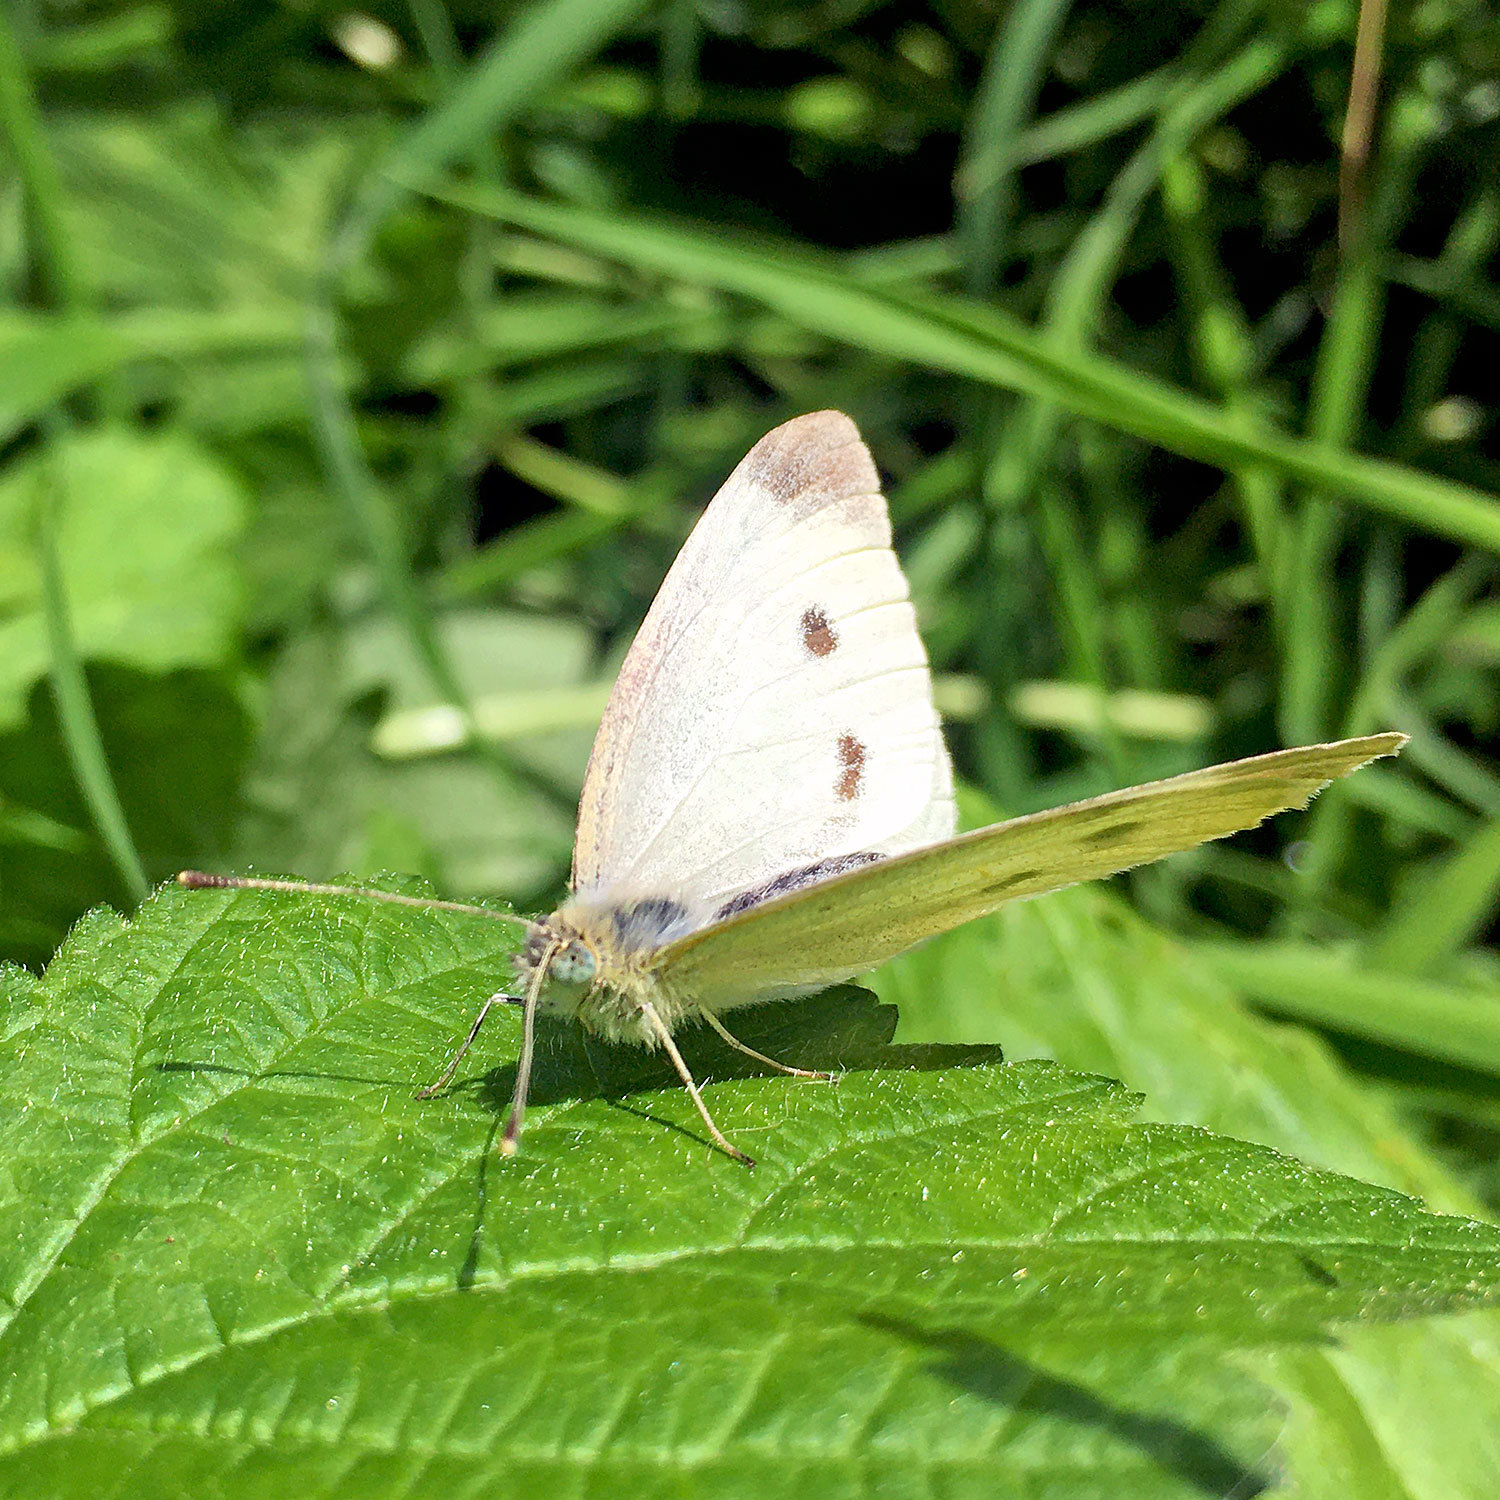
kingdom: Animalia
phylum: Arthropoda
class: Insecta
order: Lepidoptera
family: Pieridae
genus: Pieris
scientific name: Pieris rapae
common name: Small white
